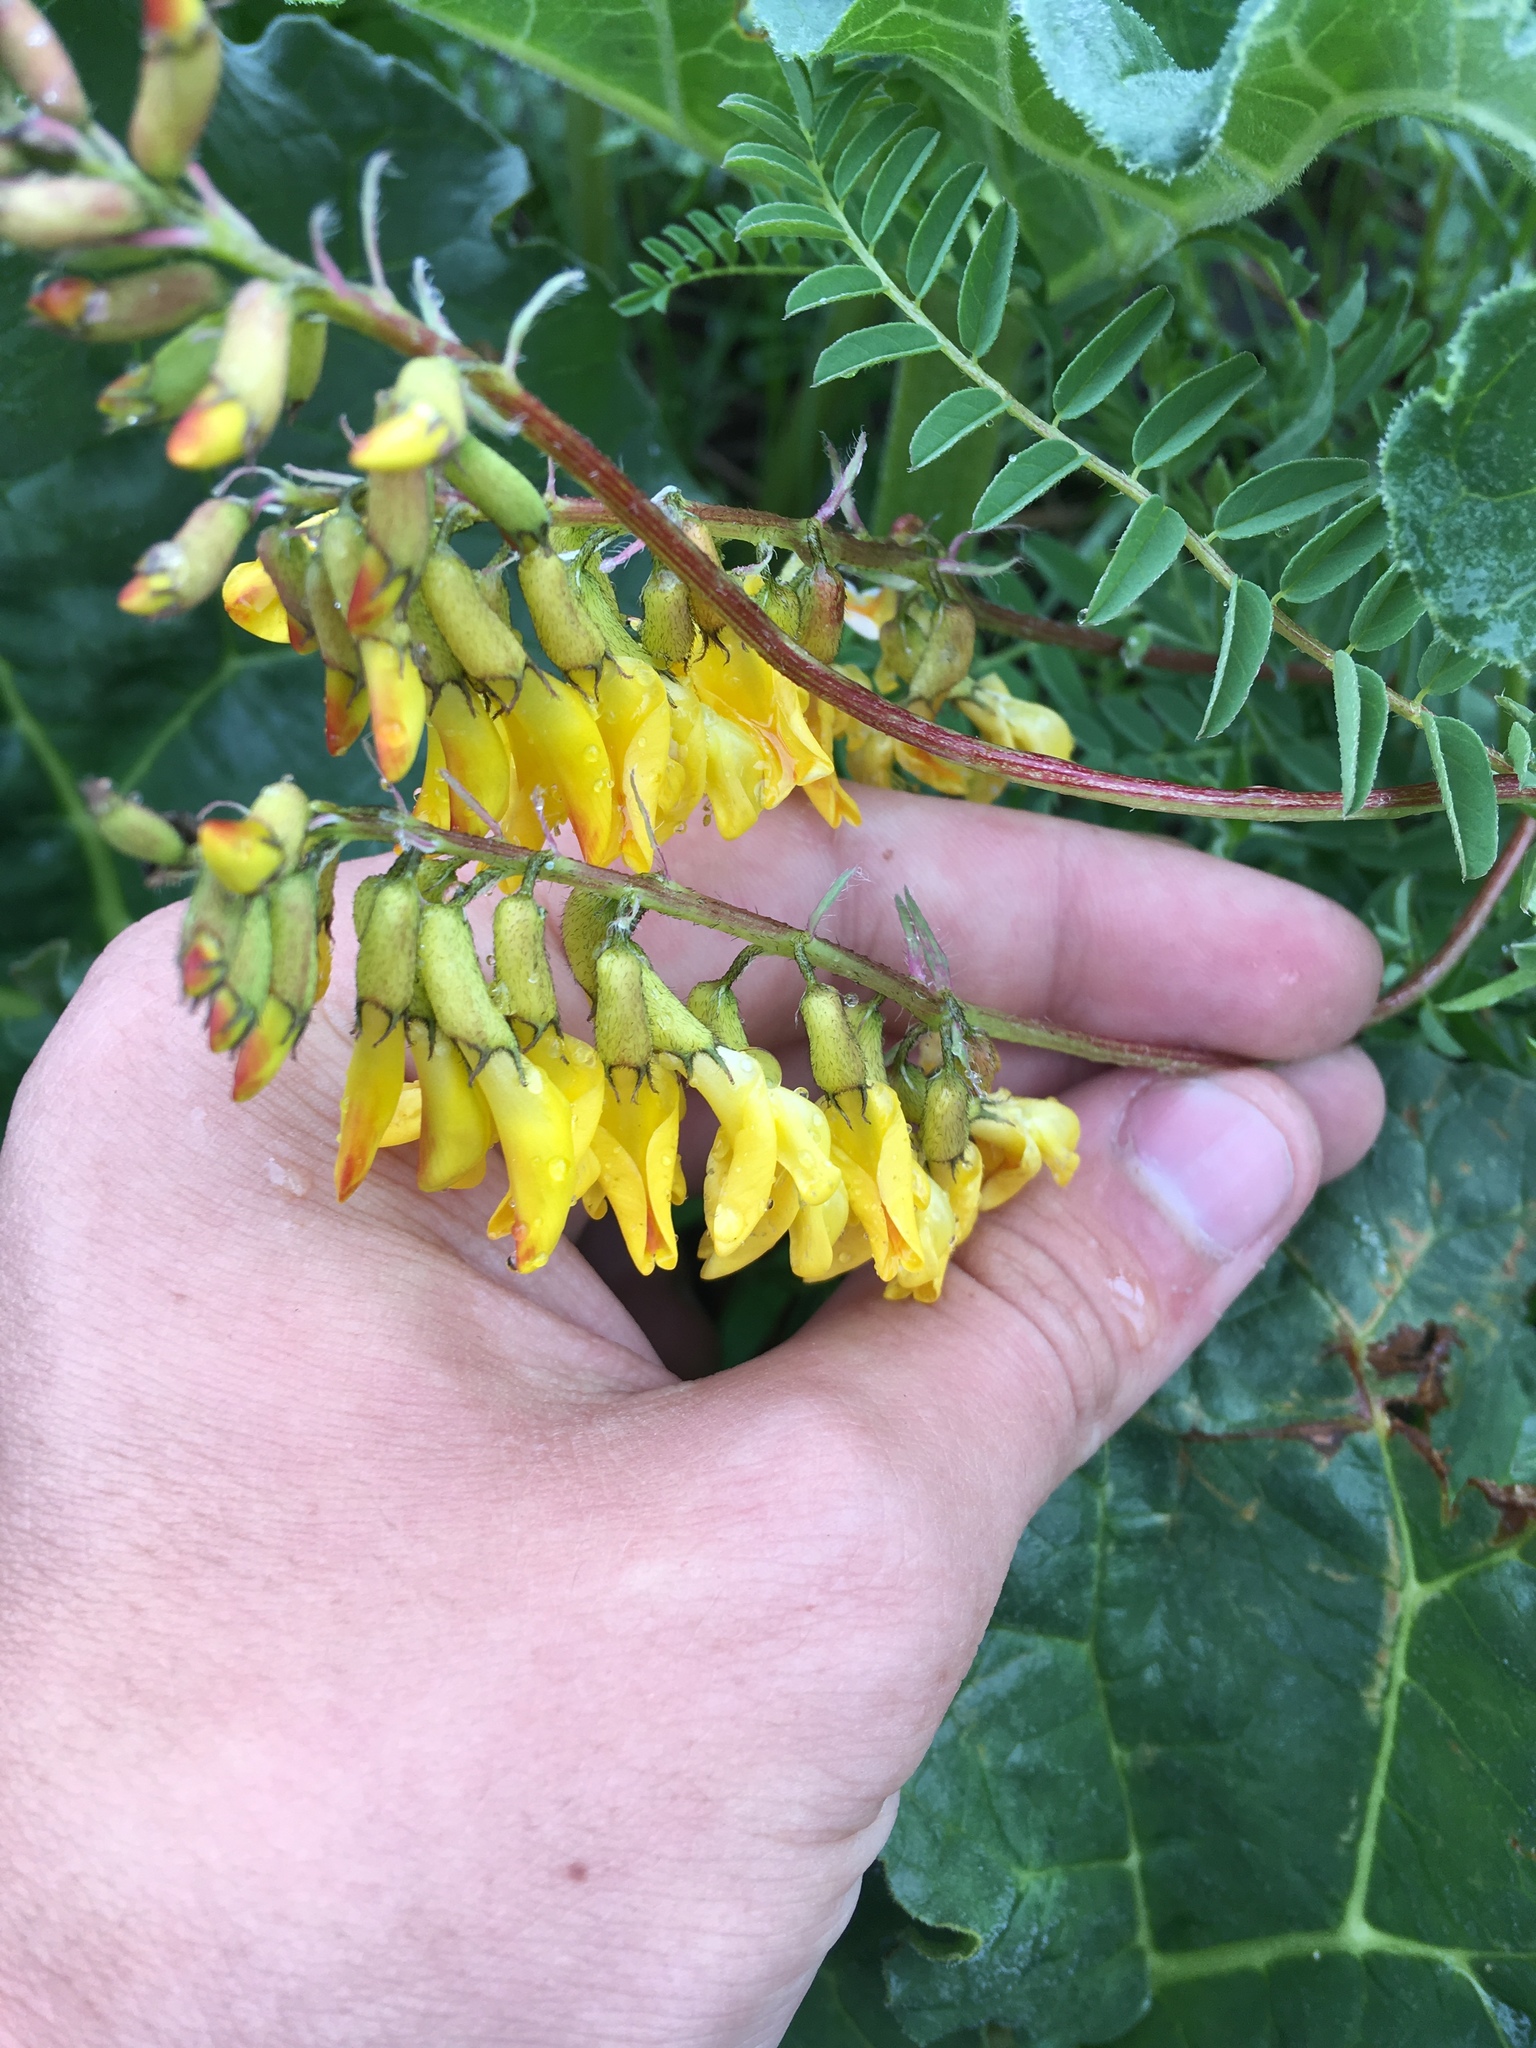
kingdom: Plantae
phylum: Tracheophyta
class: Magnoliopsida
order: Fabales
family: Fabaceae
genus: Astragalus
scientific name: Astragalus mongholicus
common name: Membranous milk-vetch
